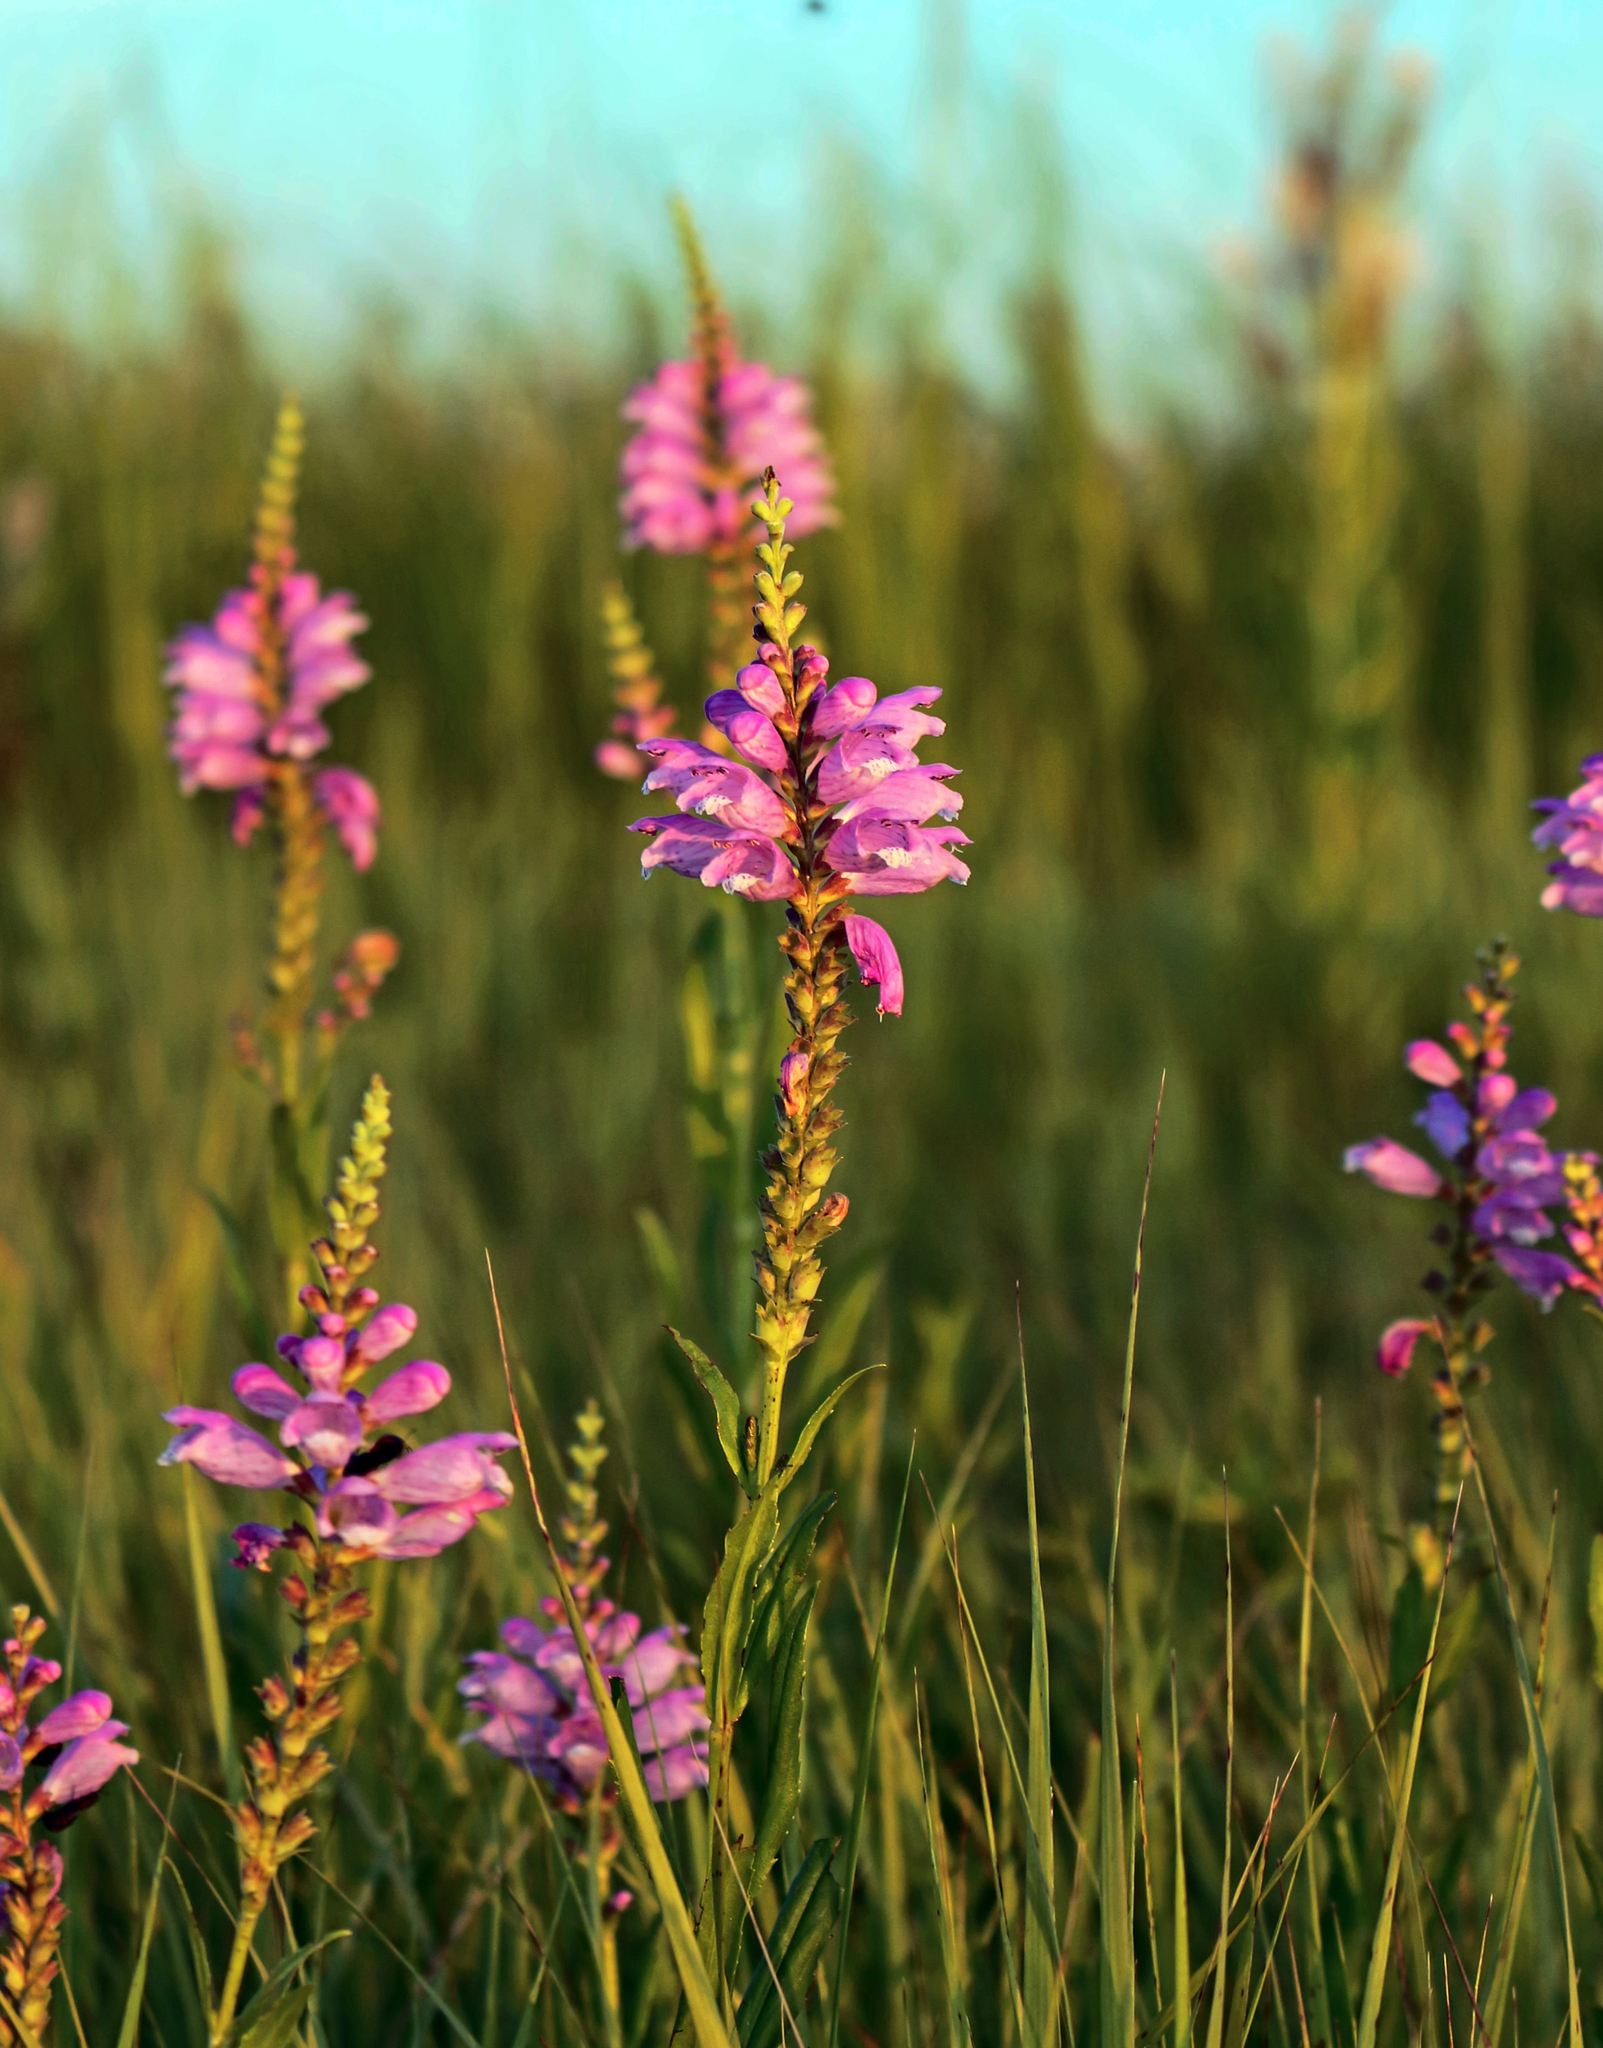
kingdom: Plantae
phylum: Tracheophyta
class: Magnoliopsida
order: Lamiales
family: Lamiaceae
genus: Physostegia
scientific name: Physostegia virginiana
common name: Obedient-plant
